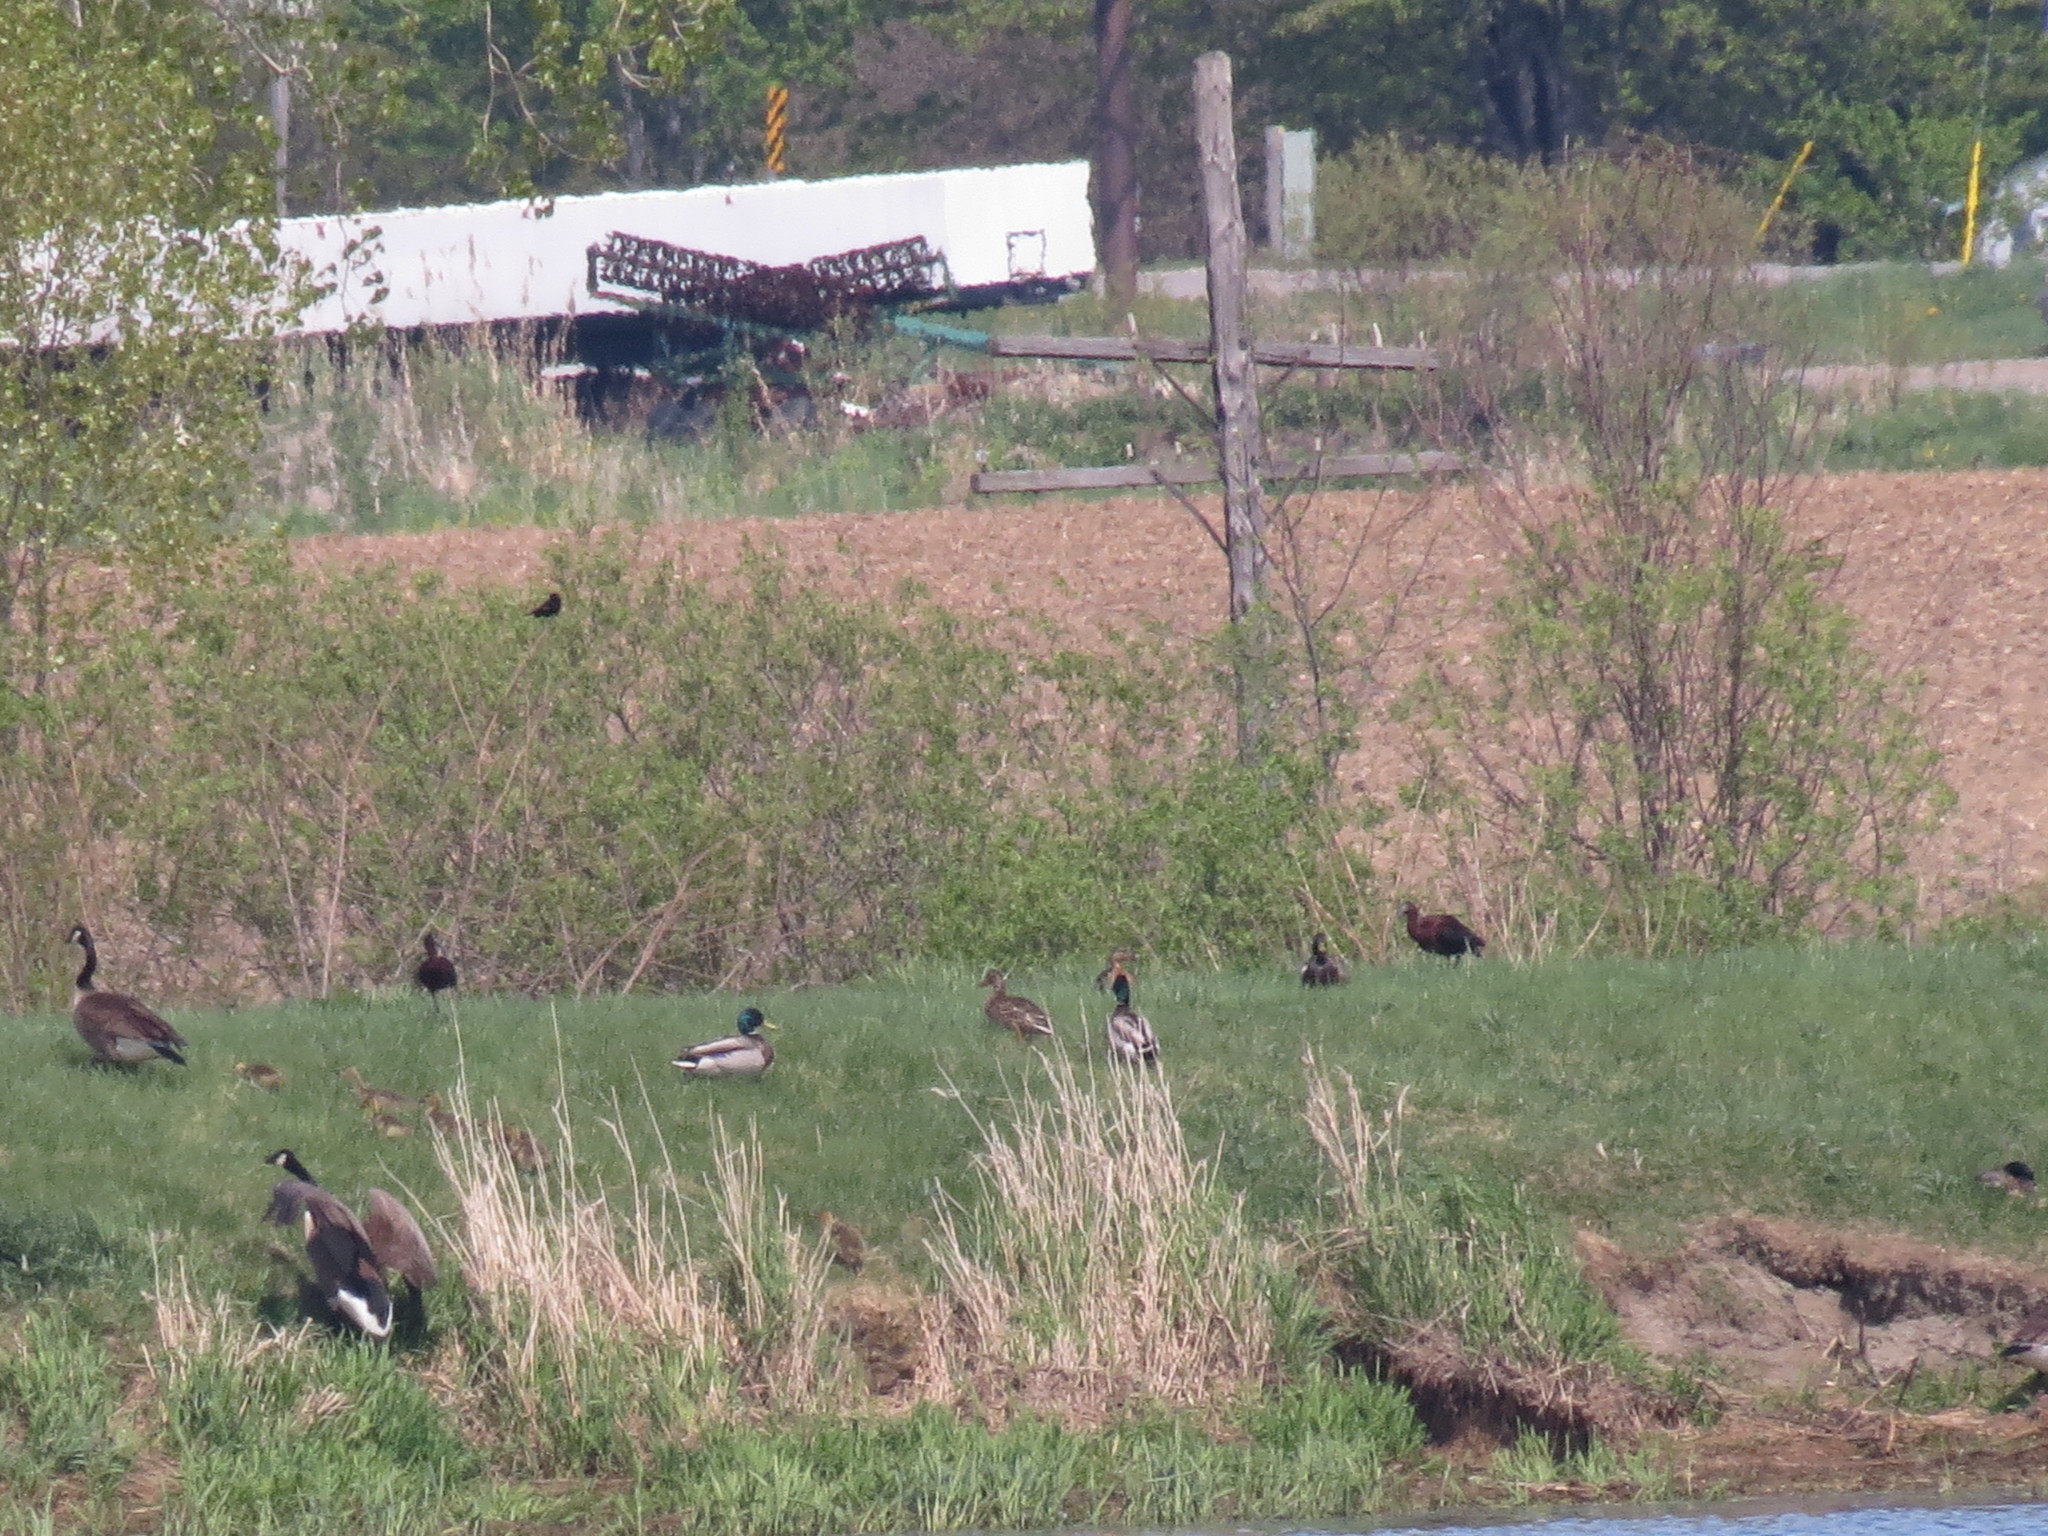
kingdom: Animalia
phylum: Chordata
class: Aves
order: Pelecaniformes
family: Threskiornithidae
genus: Plegadis
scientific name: Plegadis falcinellus
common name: Glossy ibis
